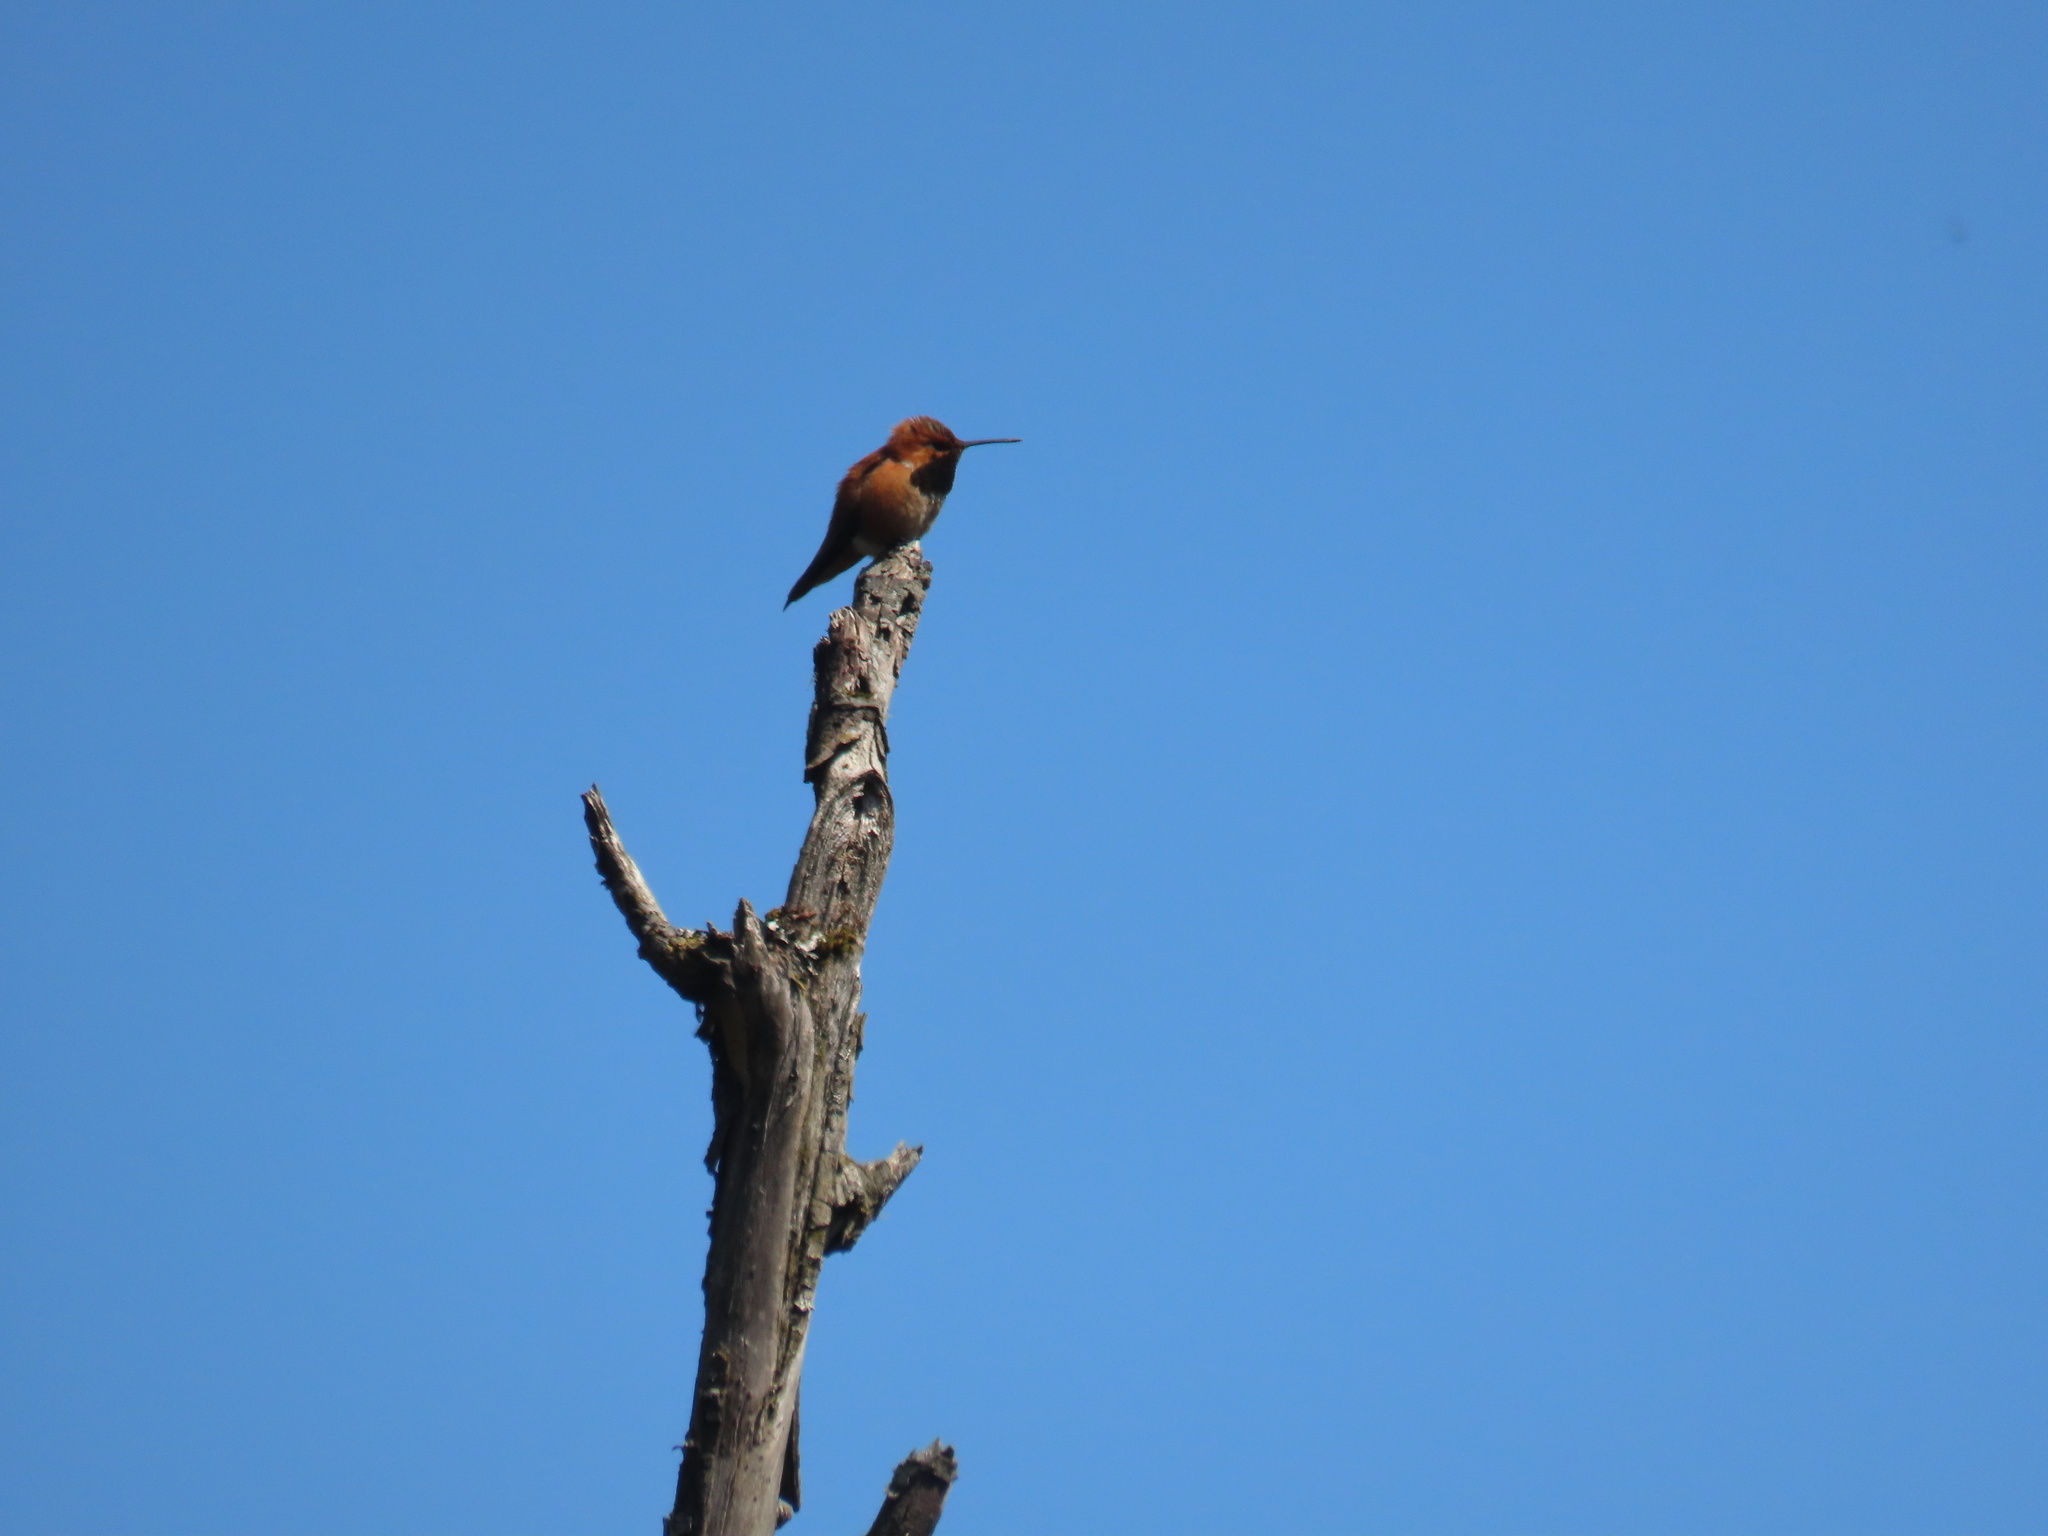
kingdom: Animalia
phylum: Chordata
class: Aves
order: Apodiformes
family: Trochilidae
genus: Selasphorus
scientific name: Selasphorus rufus
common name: Rufous hummingbird
